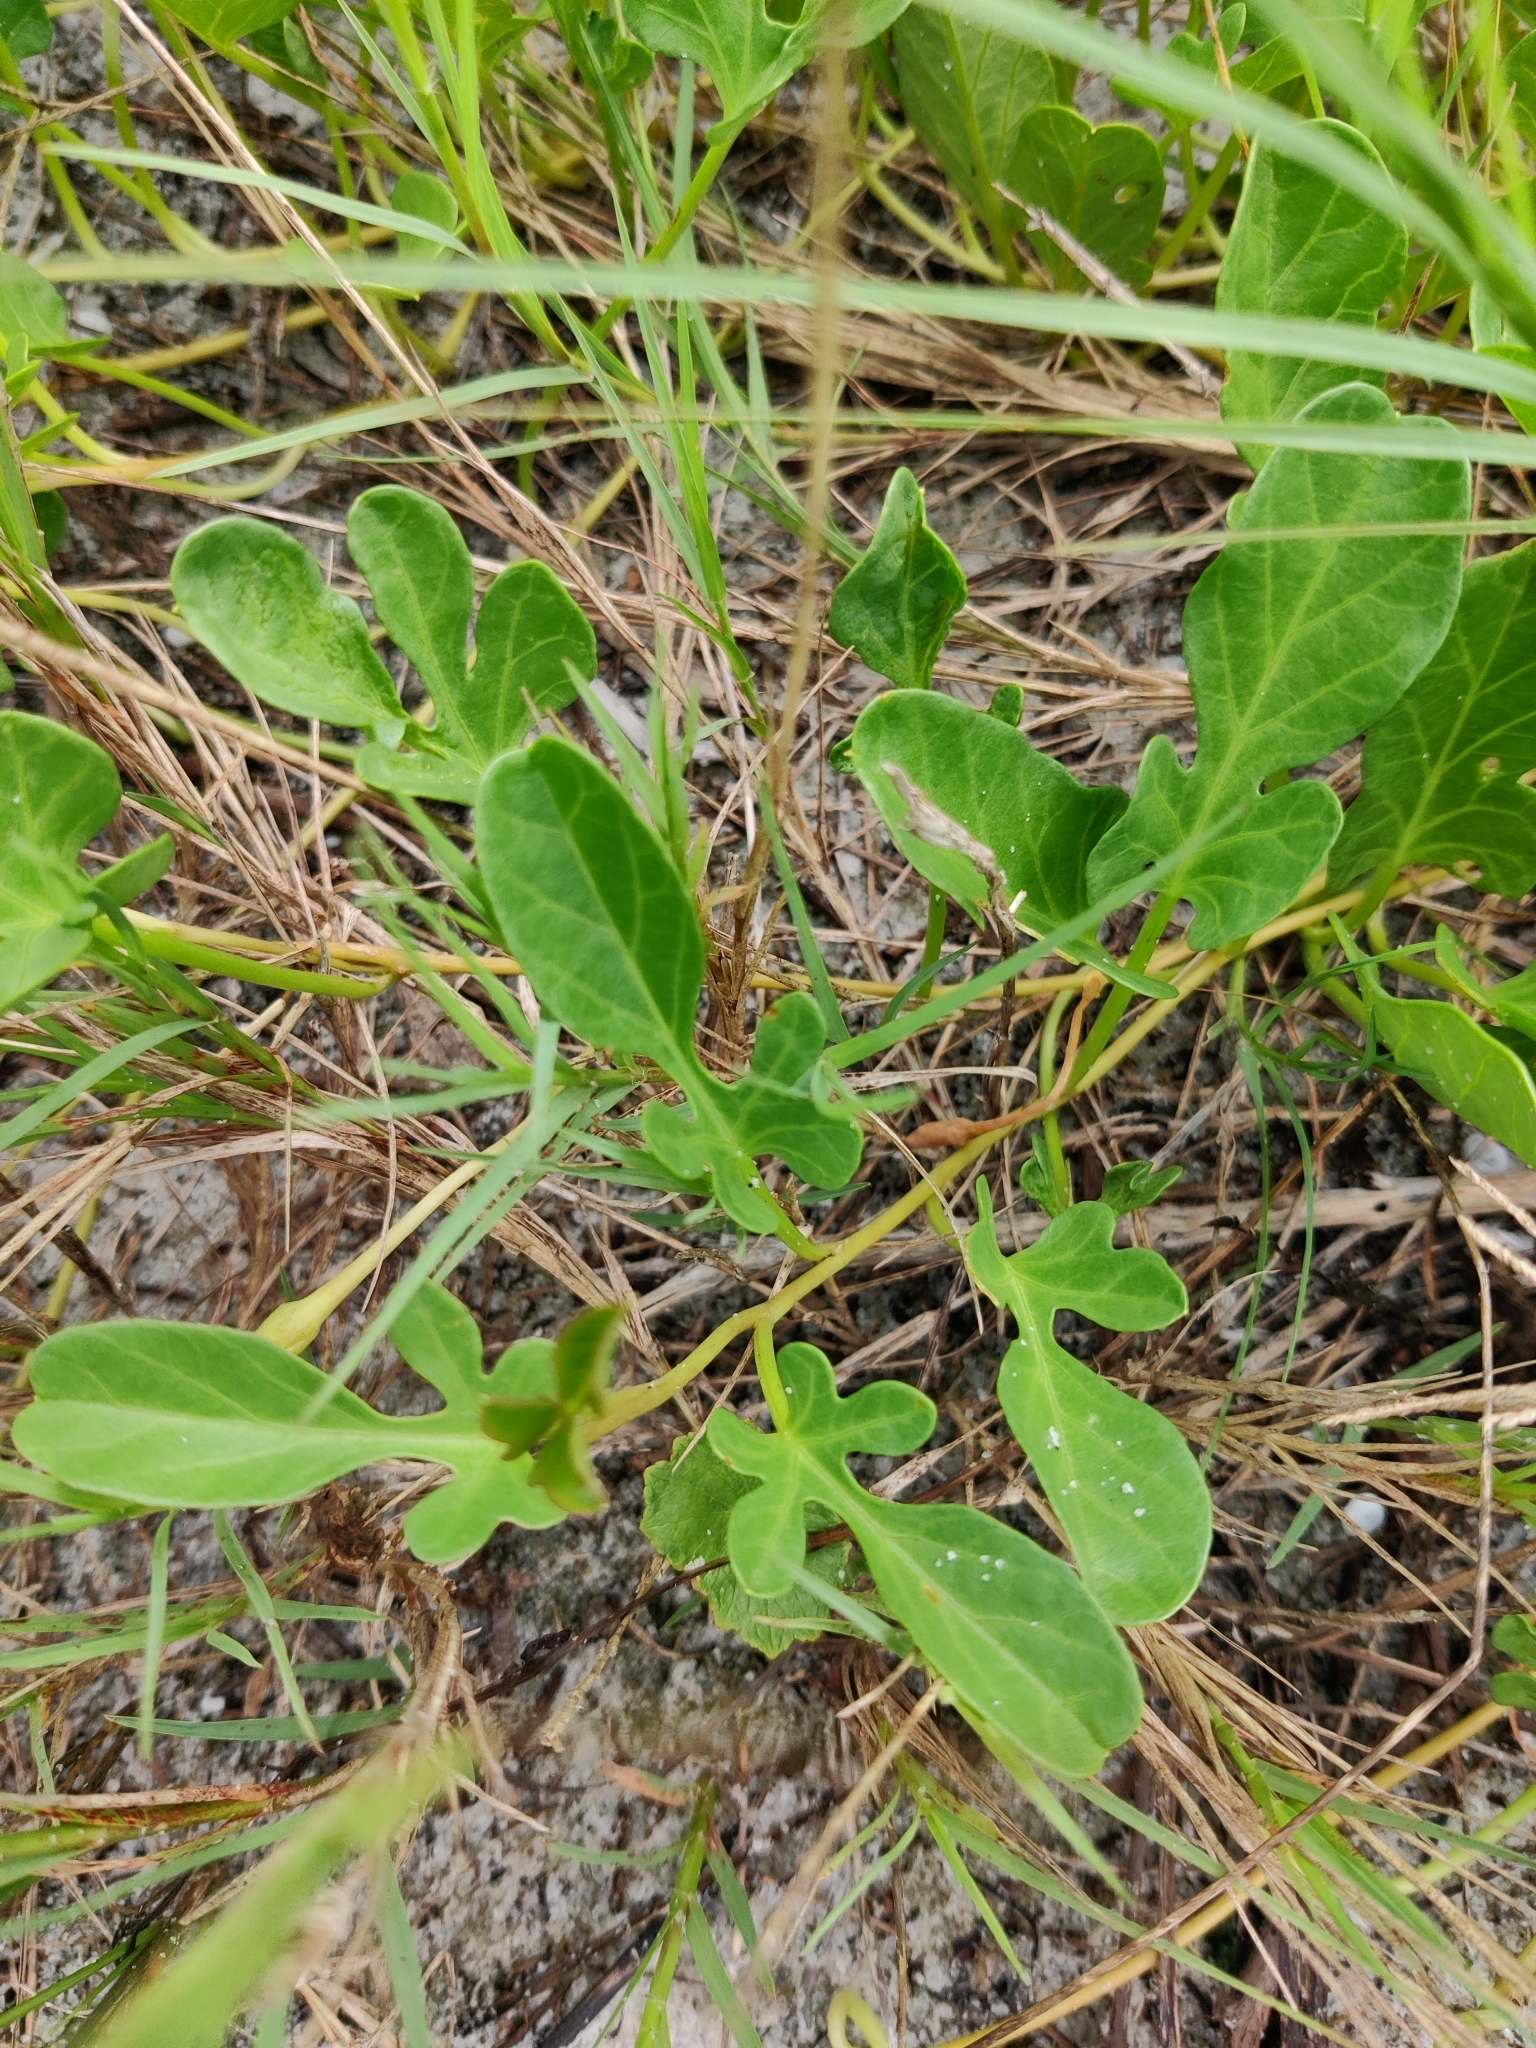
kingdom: Plantae
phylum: Tracheophyta
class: Magnoliopsida
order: Solanales
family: Convolvulaceae
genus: Ipomoea
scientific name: Ipomoea imperati
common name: Fiddle-leaf morning-glory
